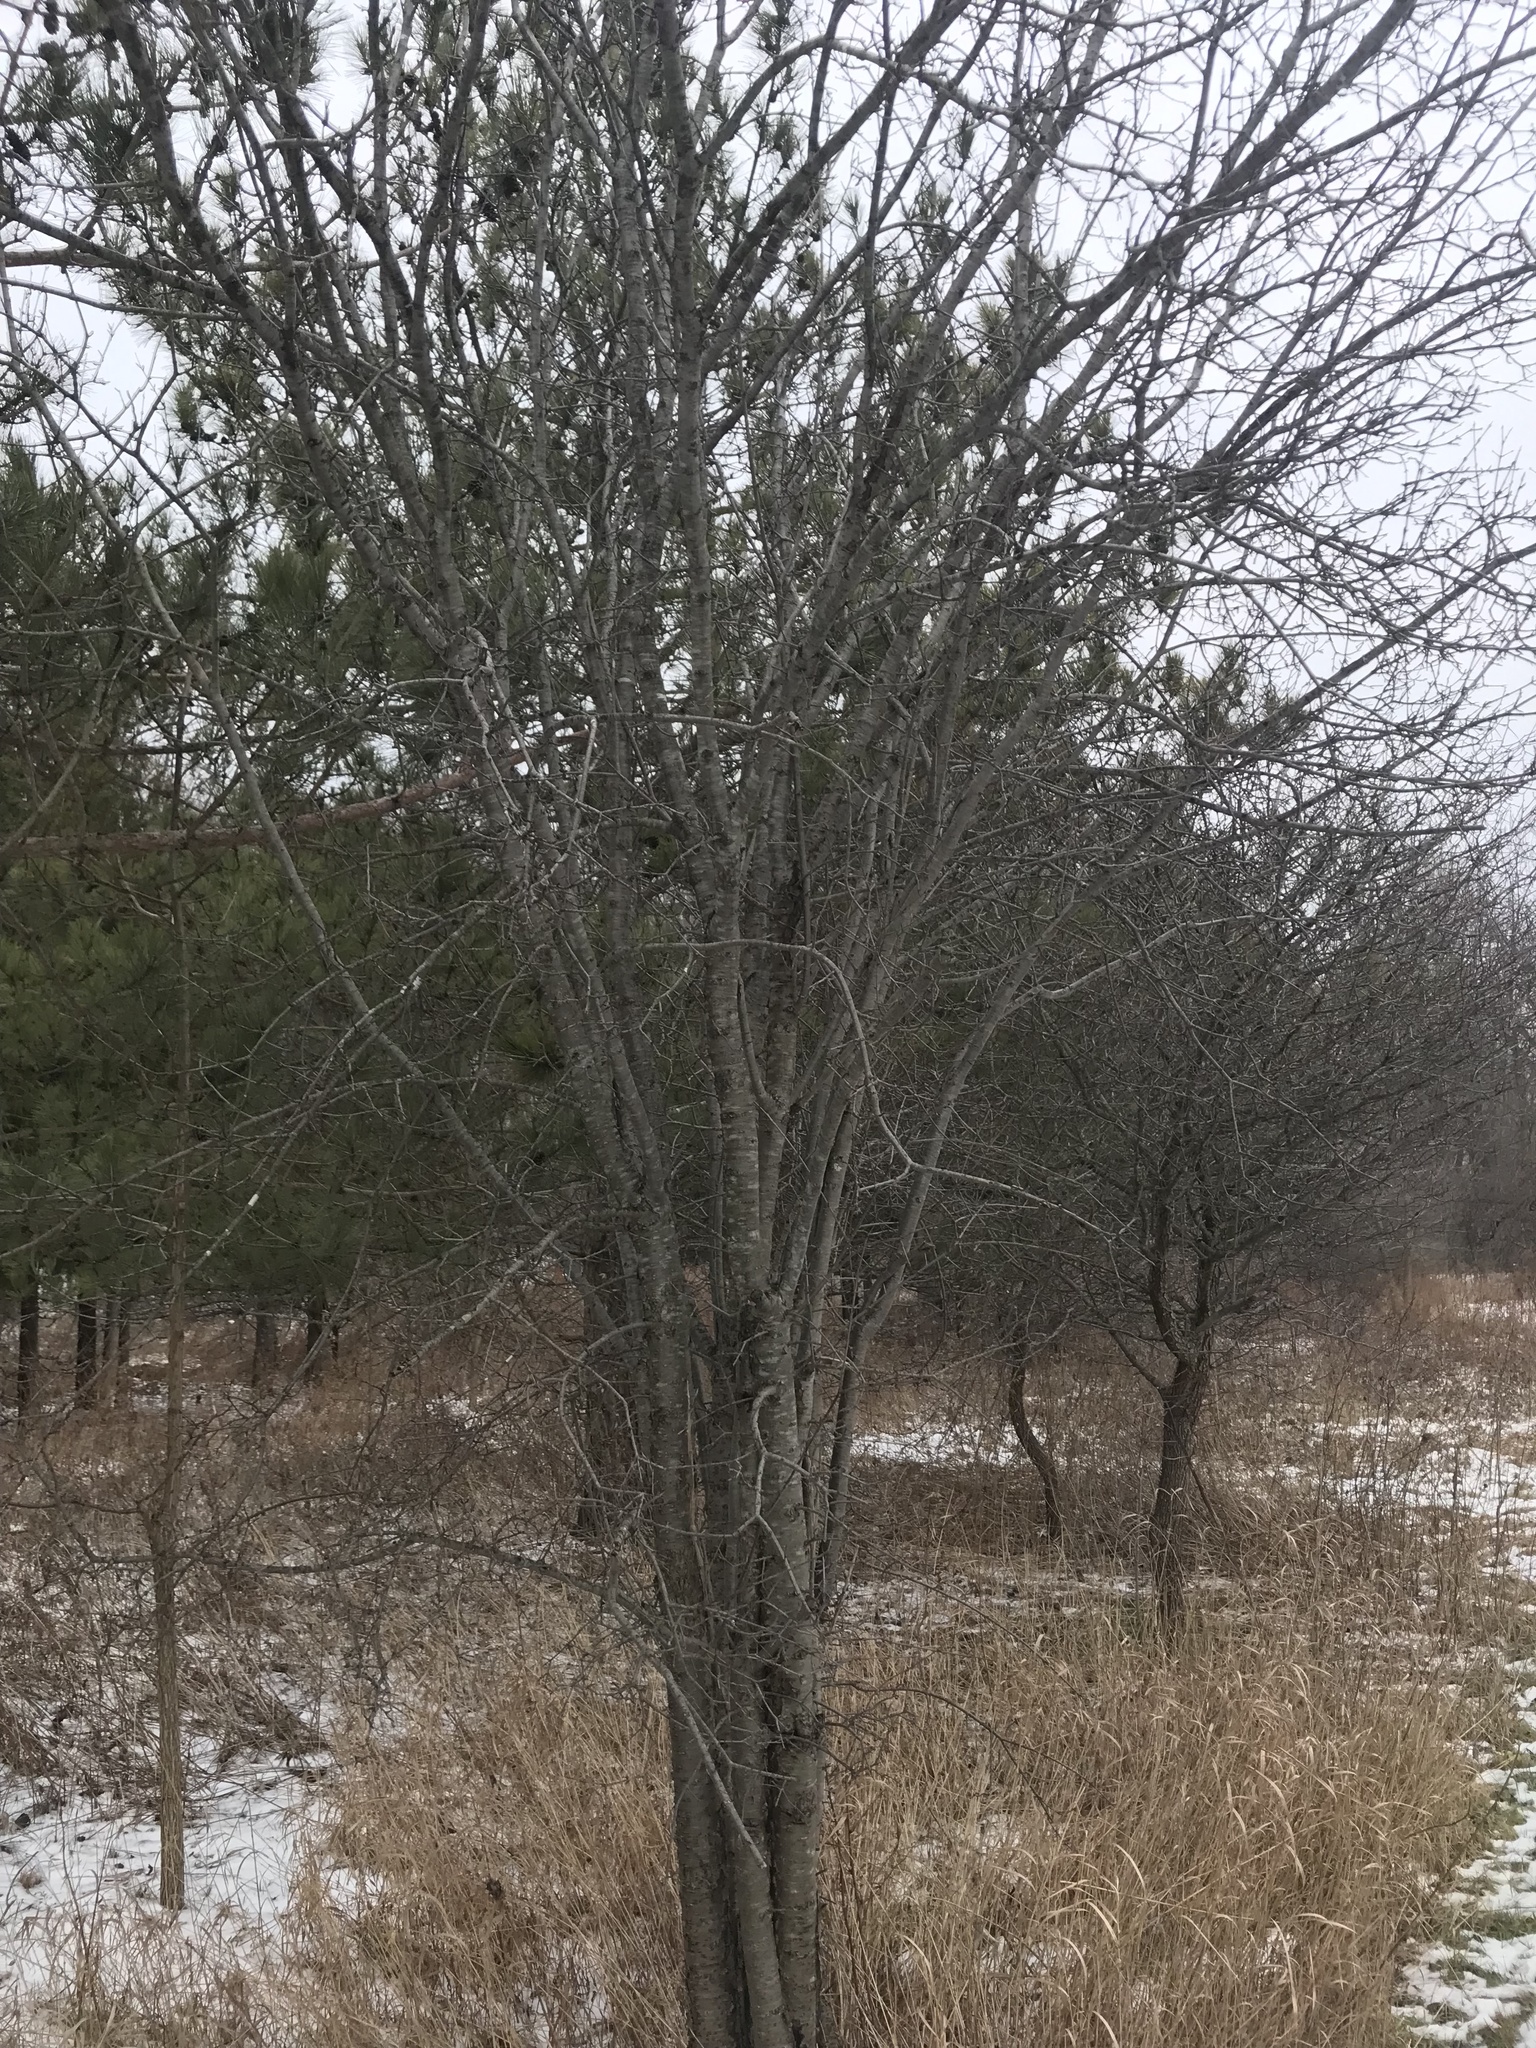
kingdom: Plantae
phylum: Tracheophyta
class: Magnoliopsida
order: Rosales
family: Rhamnaceae
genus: Rhamnus
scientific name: Rhamnus cathartica
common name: Common buckthorn
